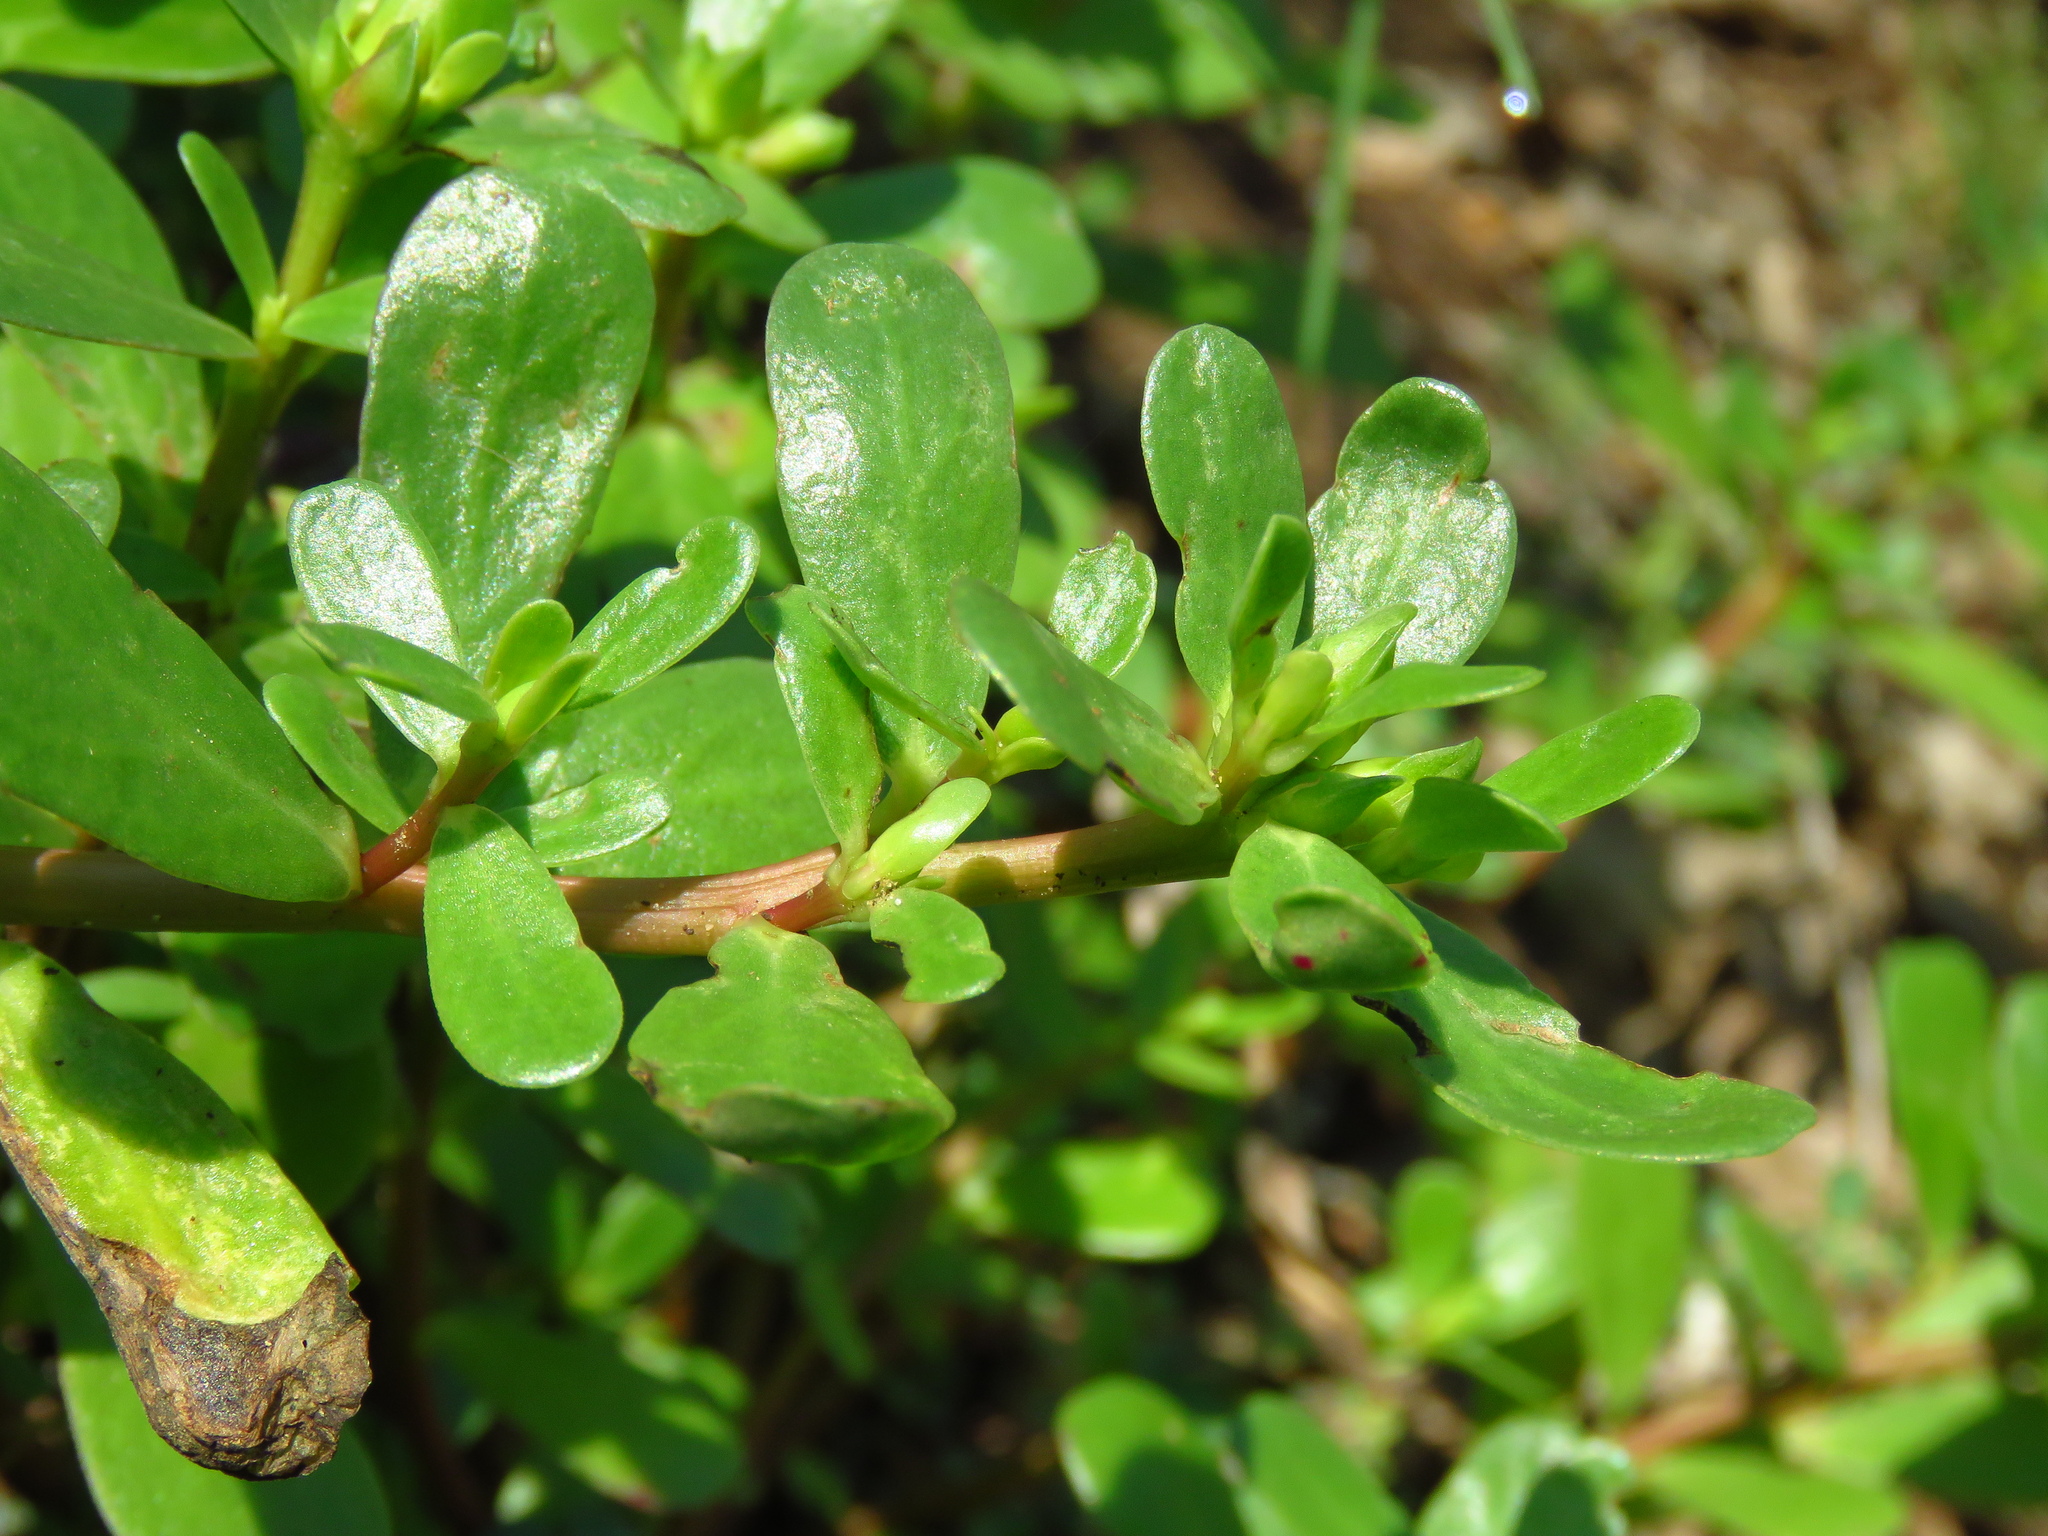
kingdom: Plantae
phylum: Tracheophyta
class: Magnoliopsida
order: Caryophyllales
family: Portulacaceae
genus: Portulaca
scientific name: Portulaca oleracea
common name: Common purslane
